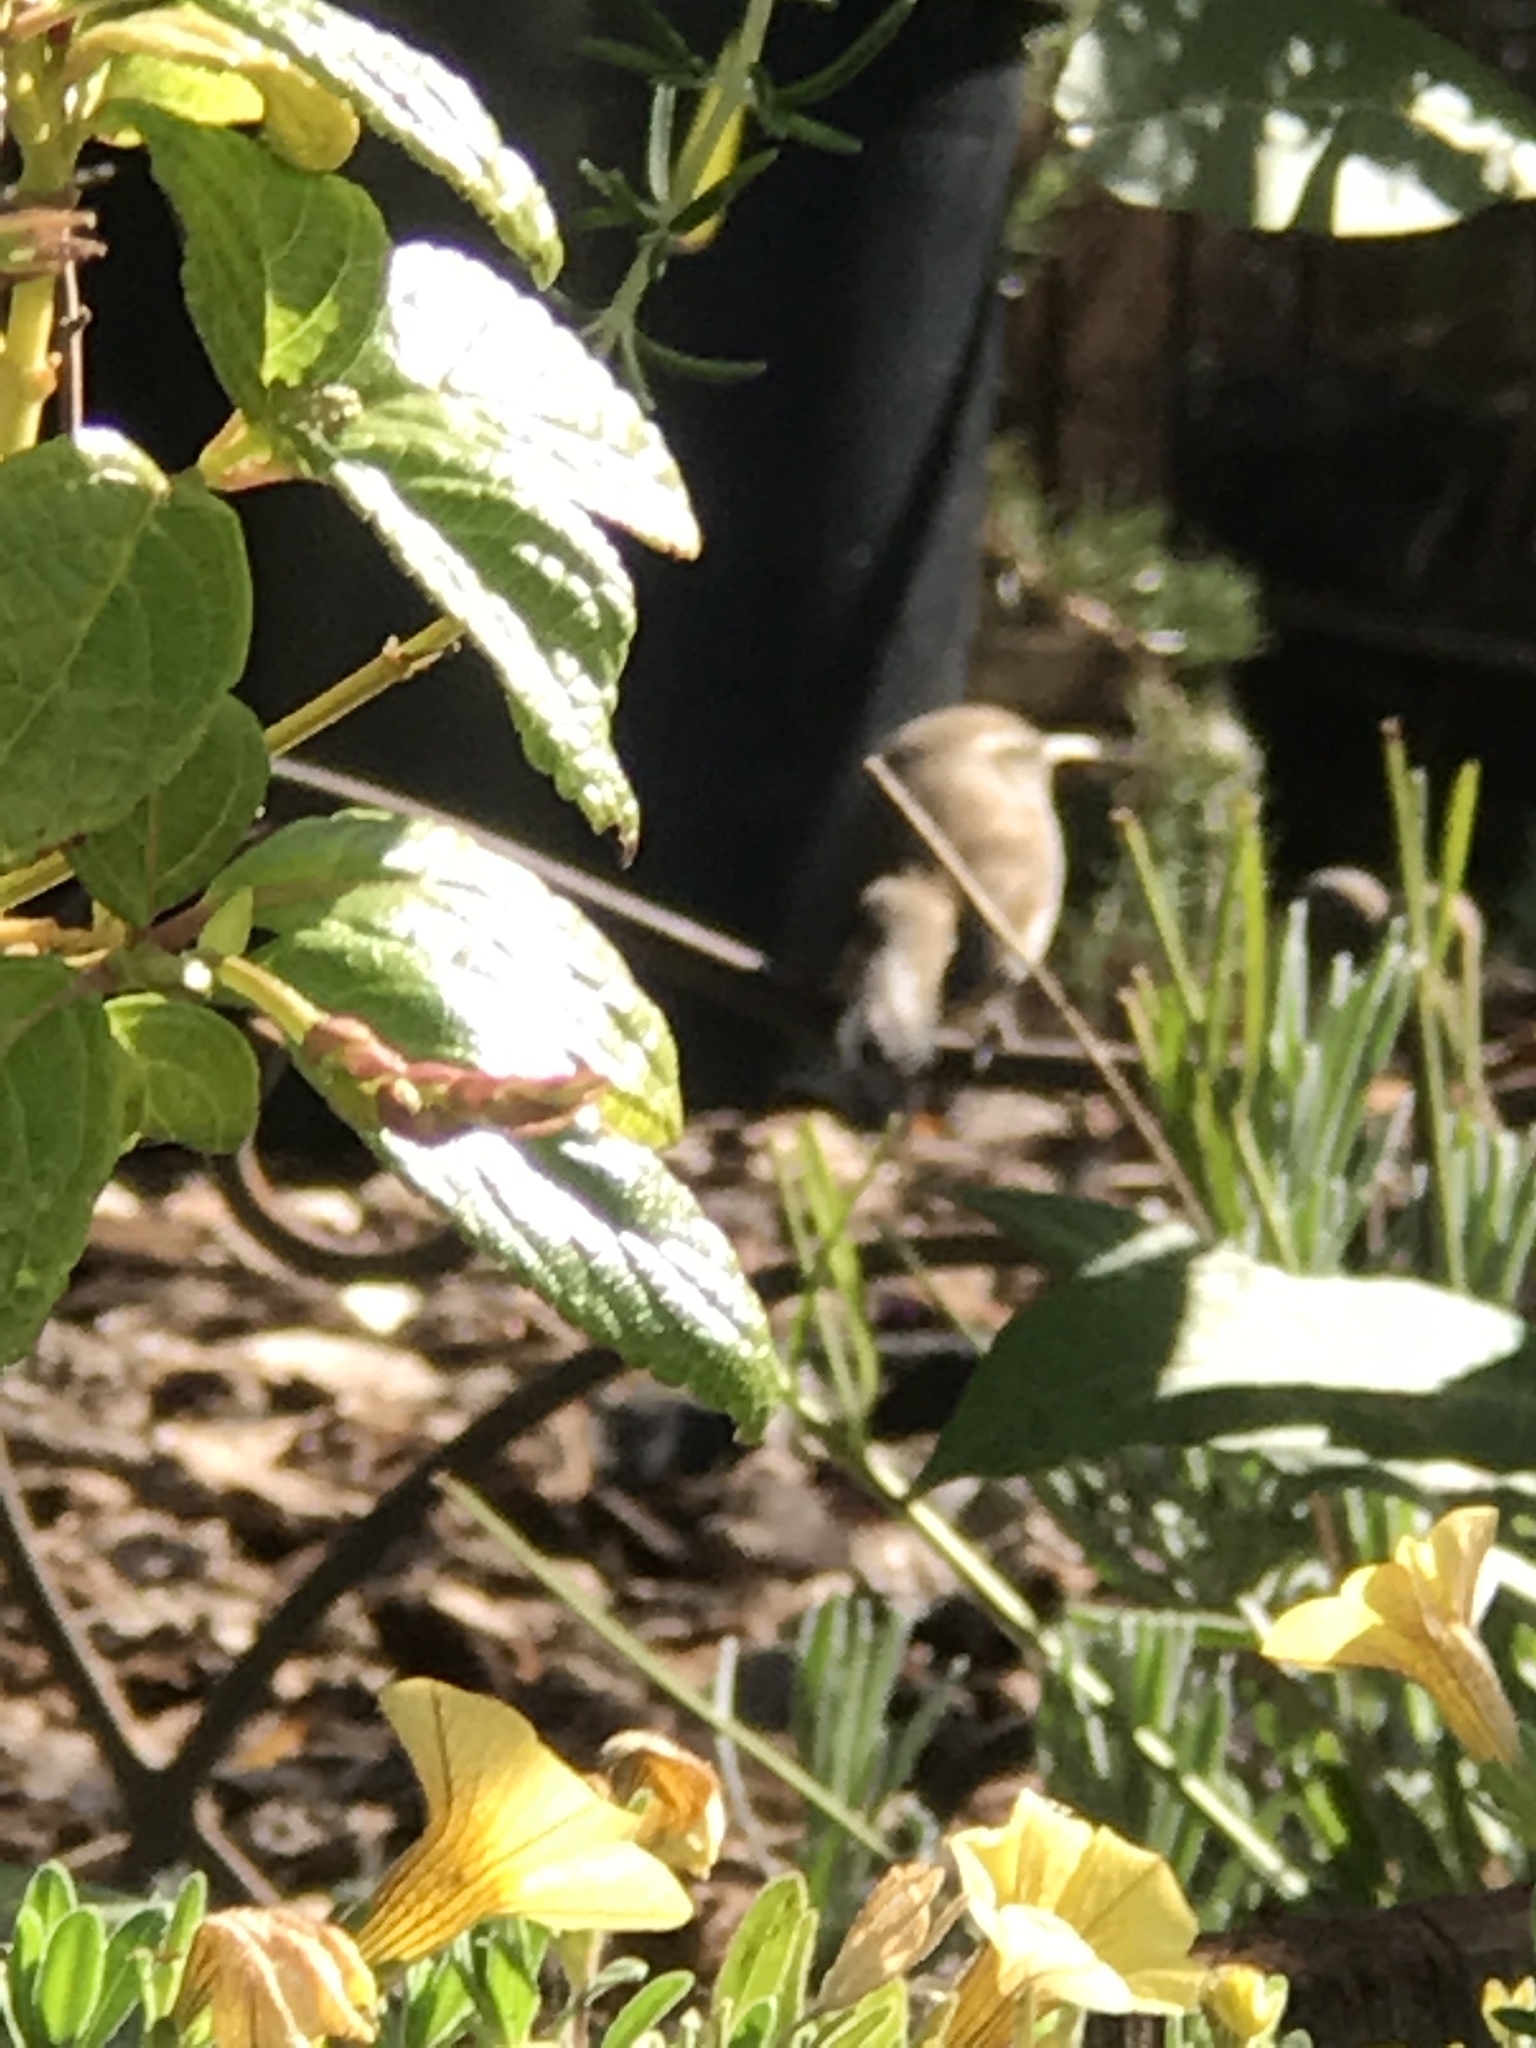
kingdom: Animalia
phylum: Chordata
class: Aves
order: Passeriformes
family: Troglodytidae
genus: Thryomanes
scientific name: Thryomanes bewickii
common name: Bewick's wren
